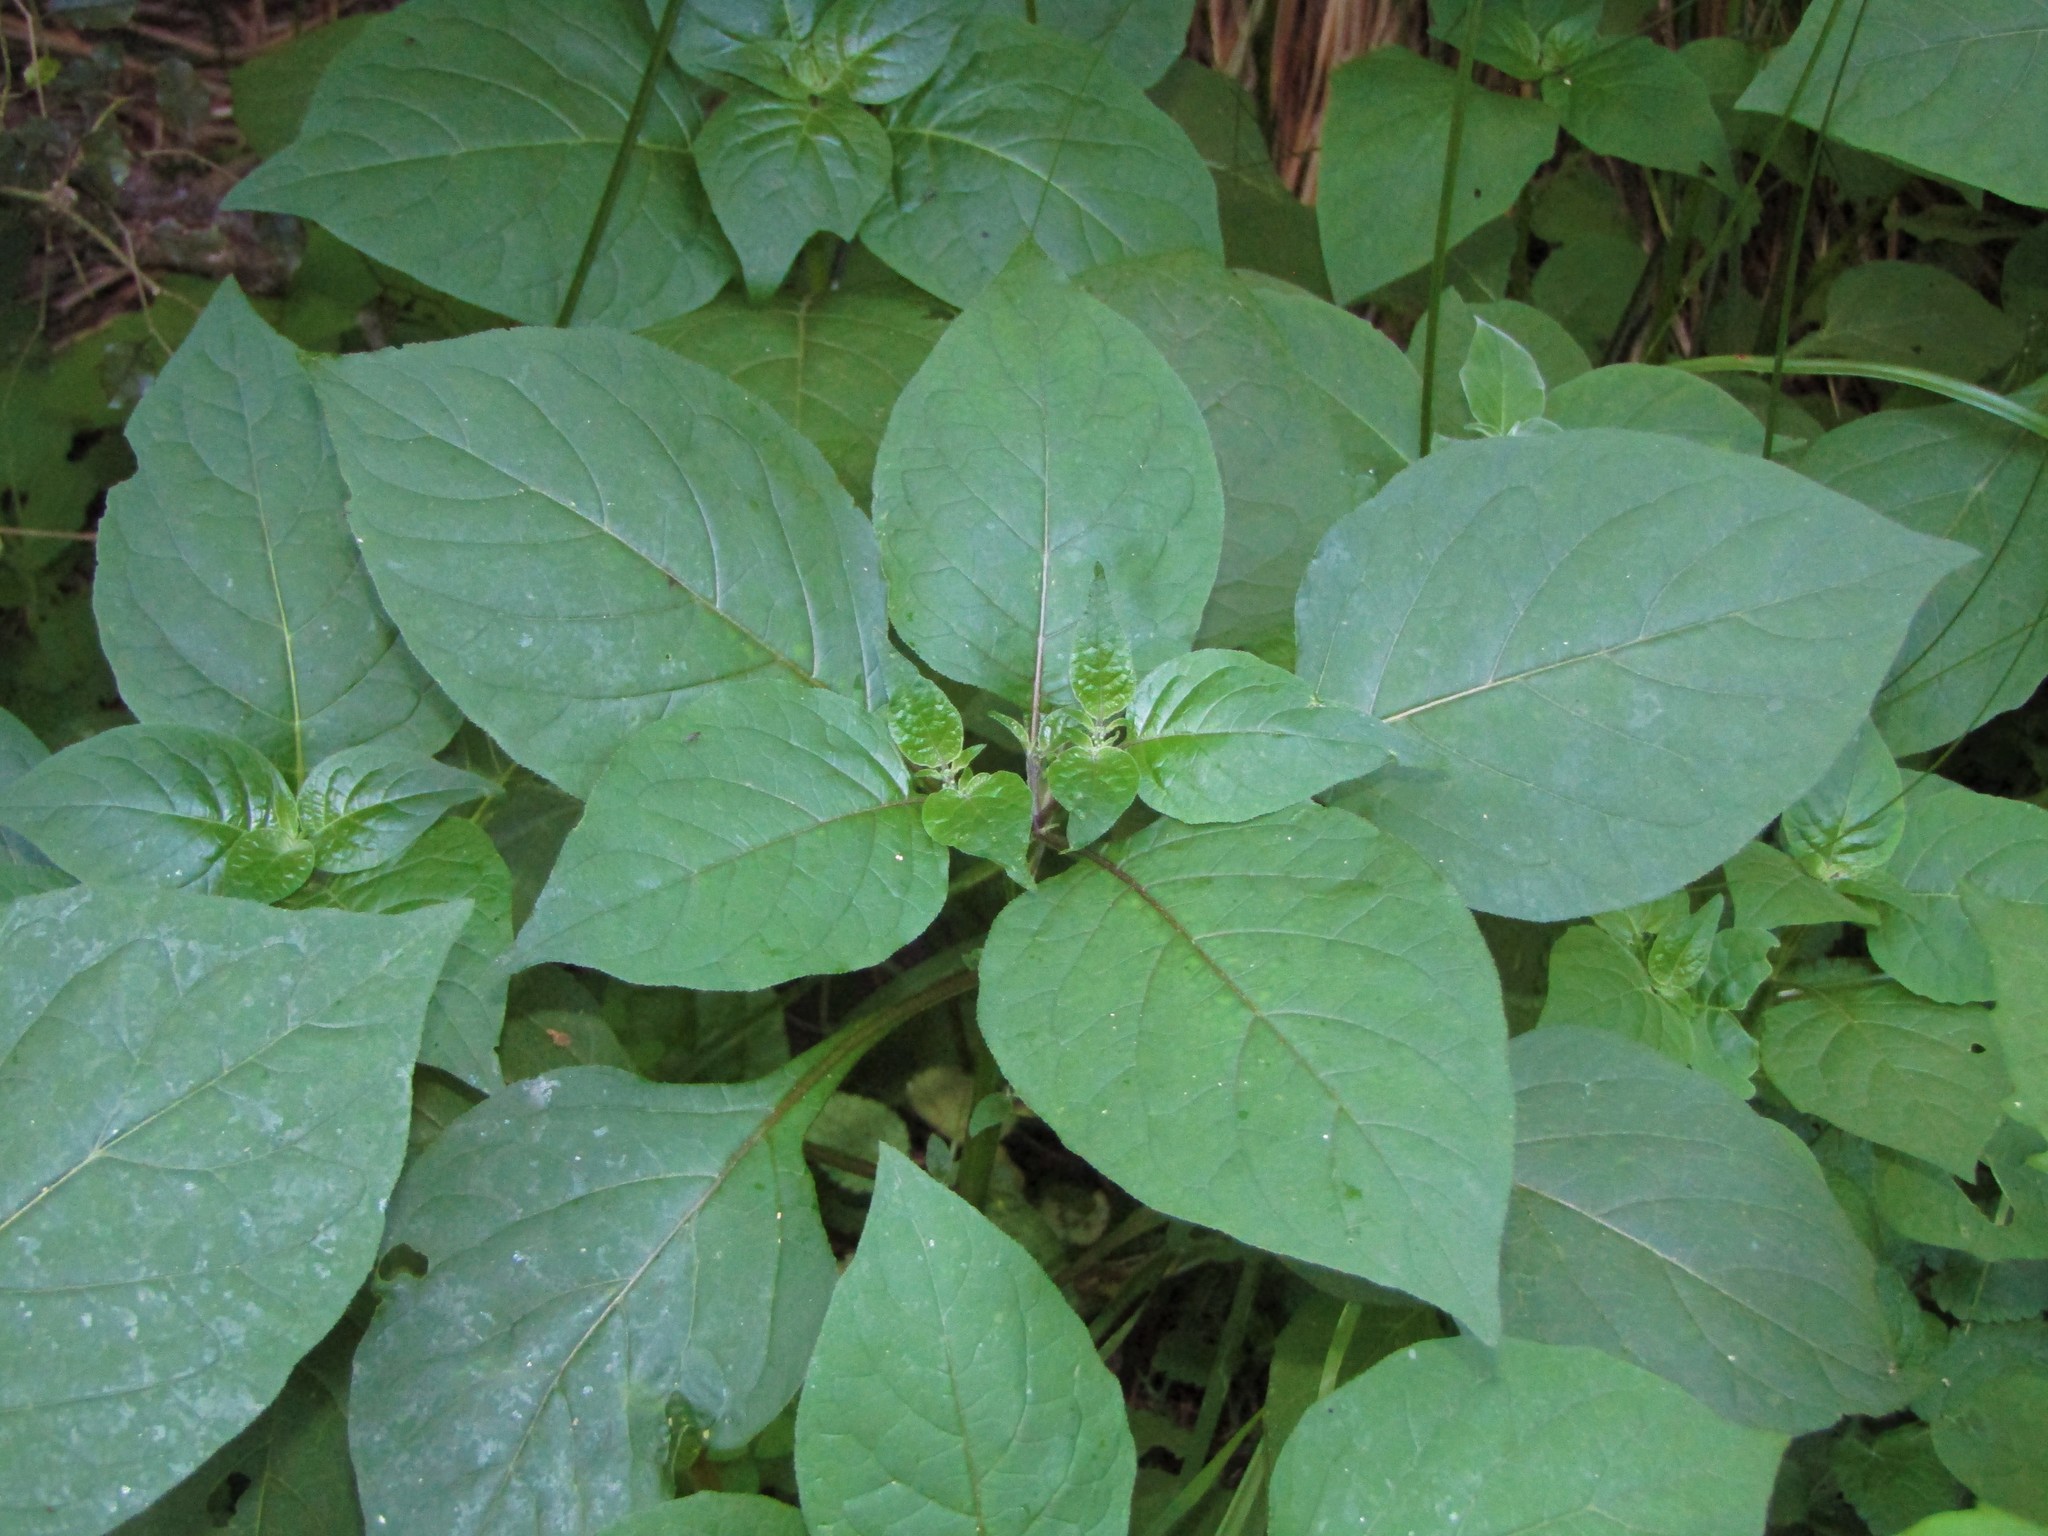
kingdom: Plantae
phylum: Tracheophyta
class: Magnoliopsida
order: Solanales
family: Solanaceae
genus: Solanum
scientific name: Solanum americanum
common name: American black nightshade
